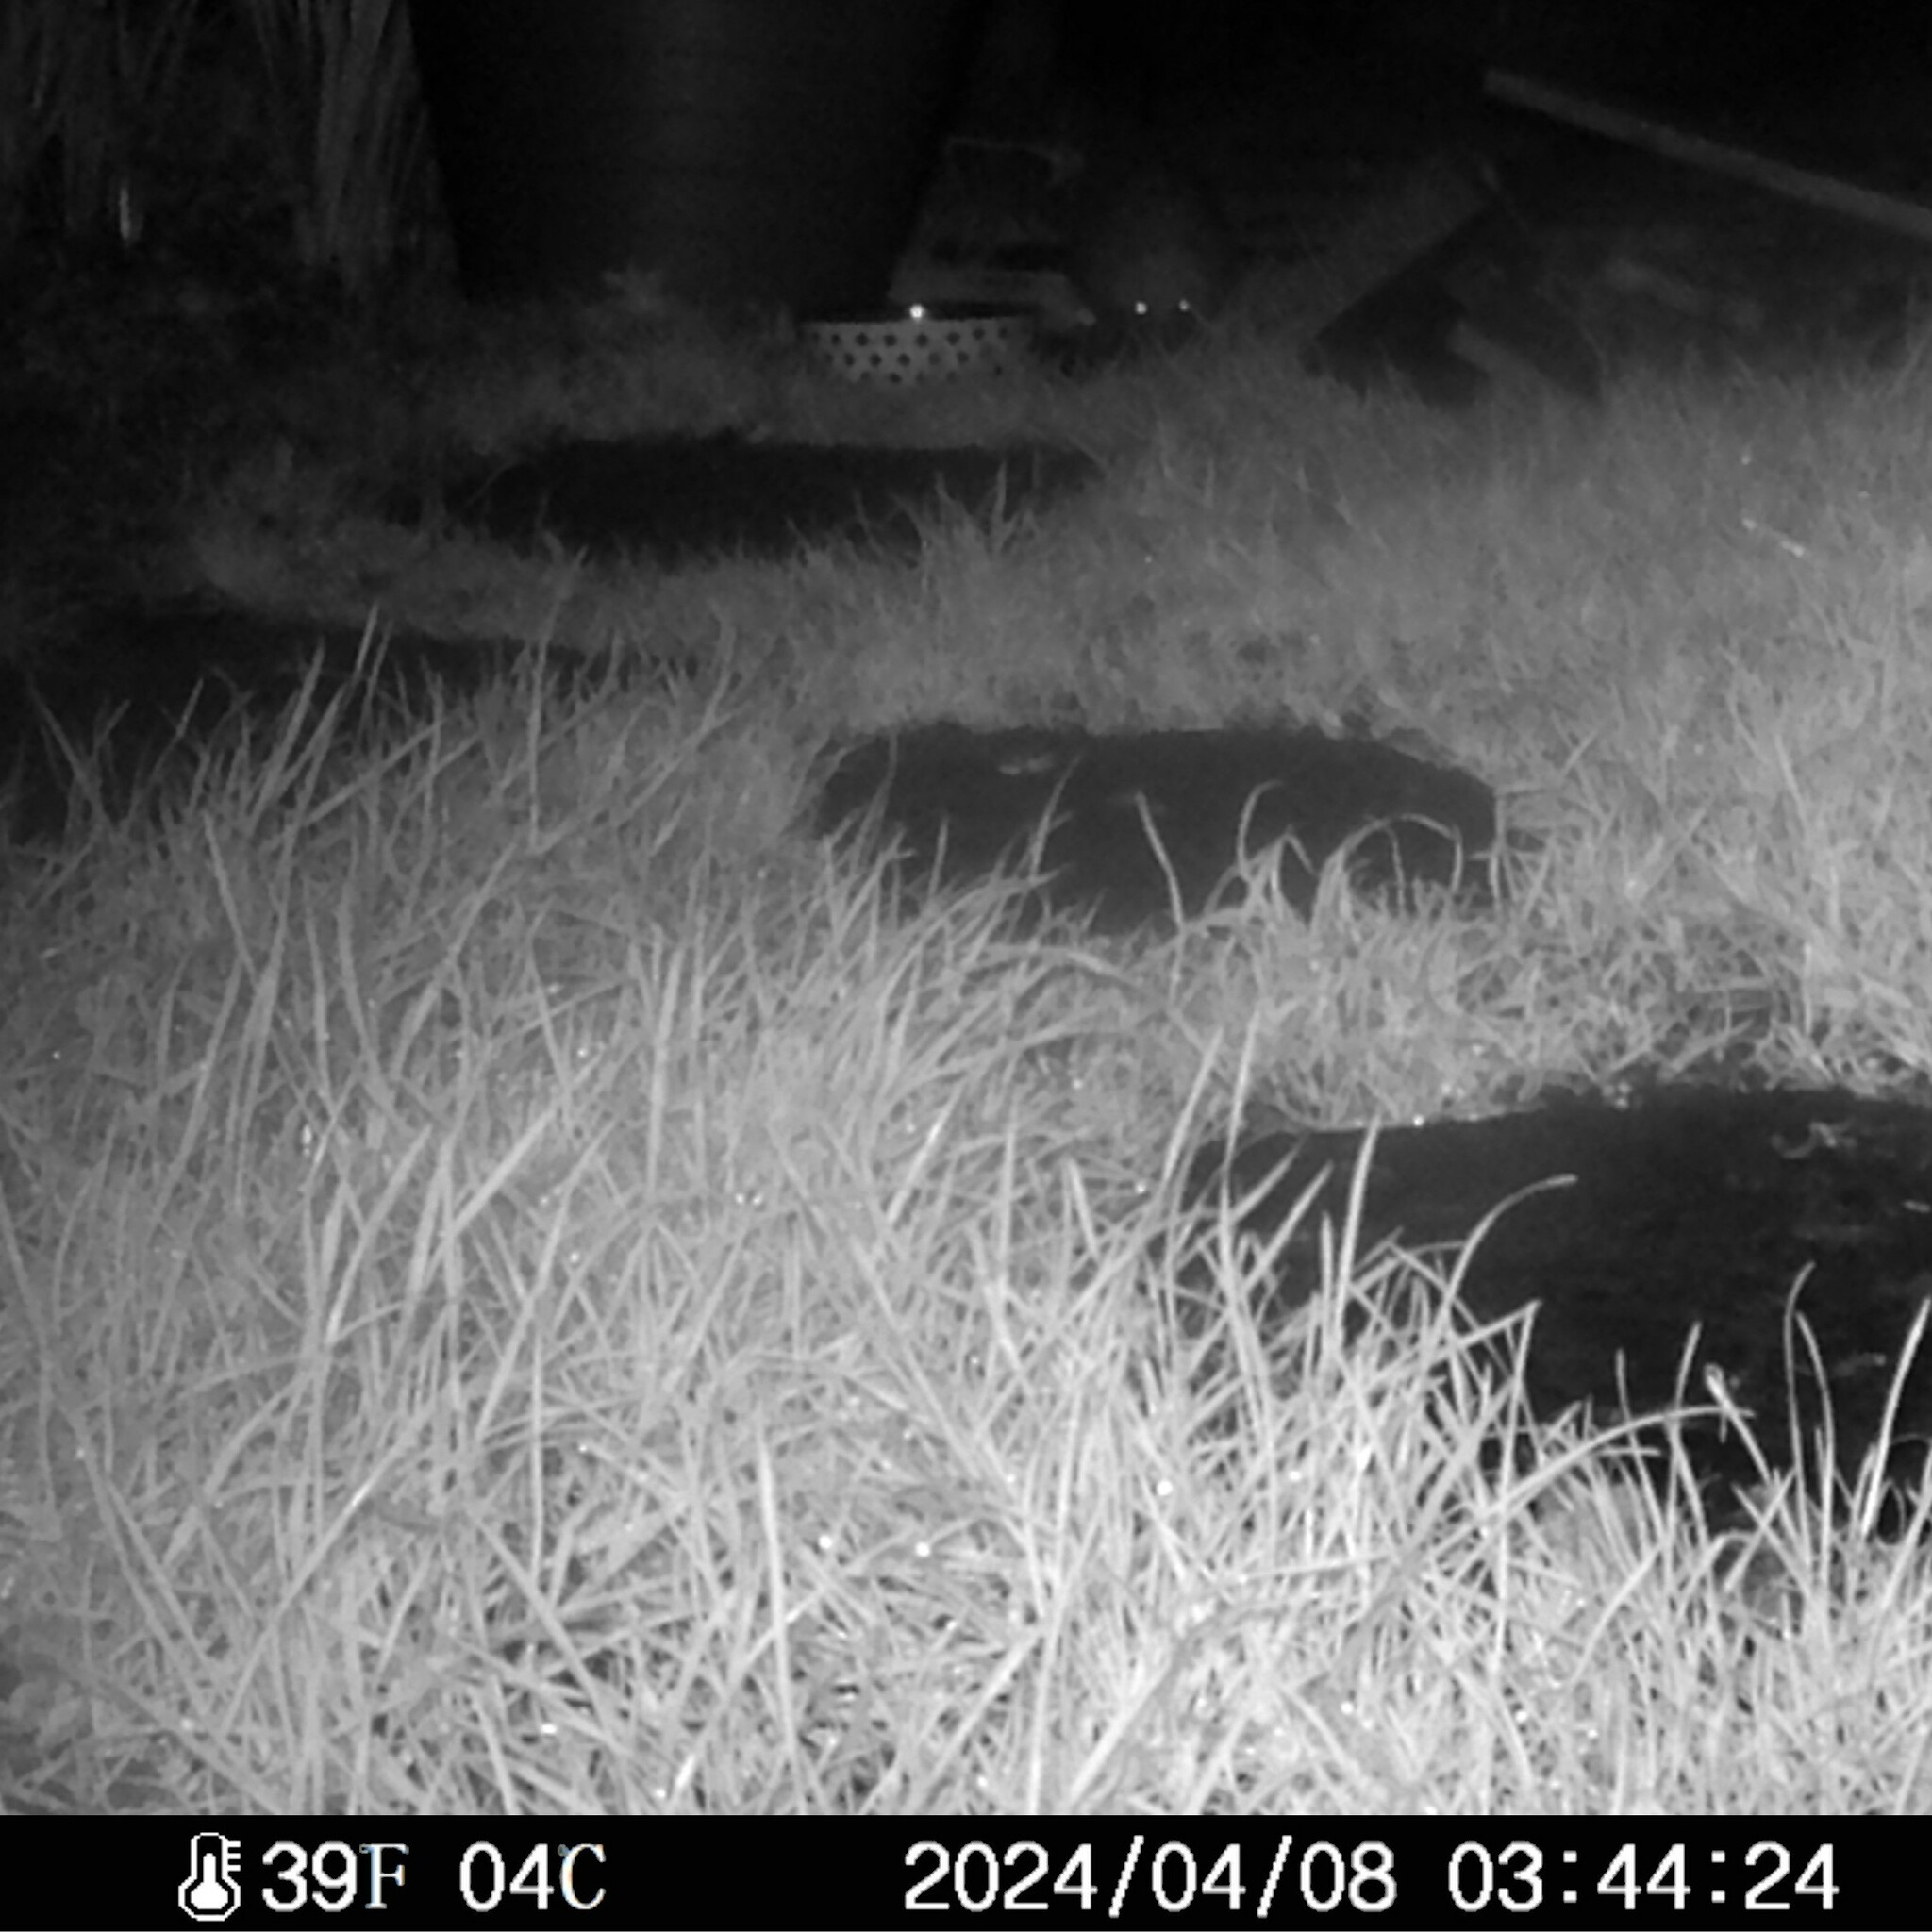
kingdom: Animalia
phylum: Chordata
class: Mammalia
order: Erinaceomorpha
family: Erinaceidae
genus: Erinaceus
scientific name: Erinaceus europaeus
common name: West european hedgehog
